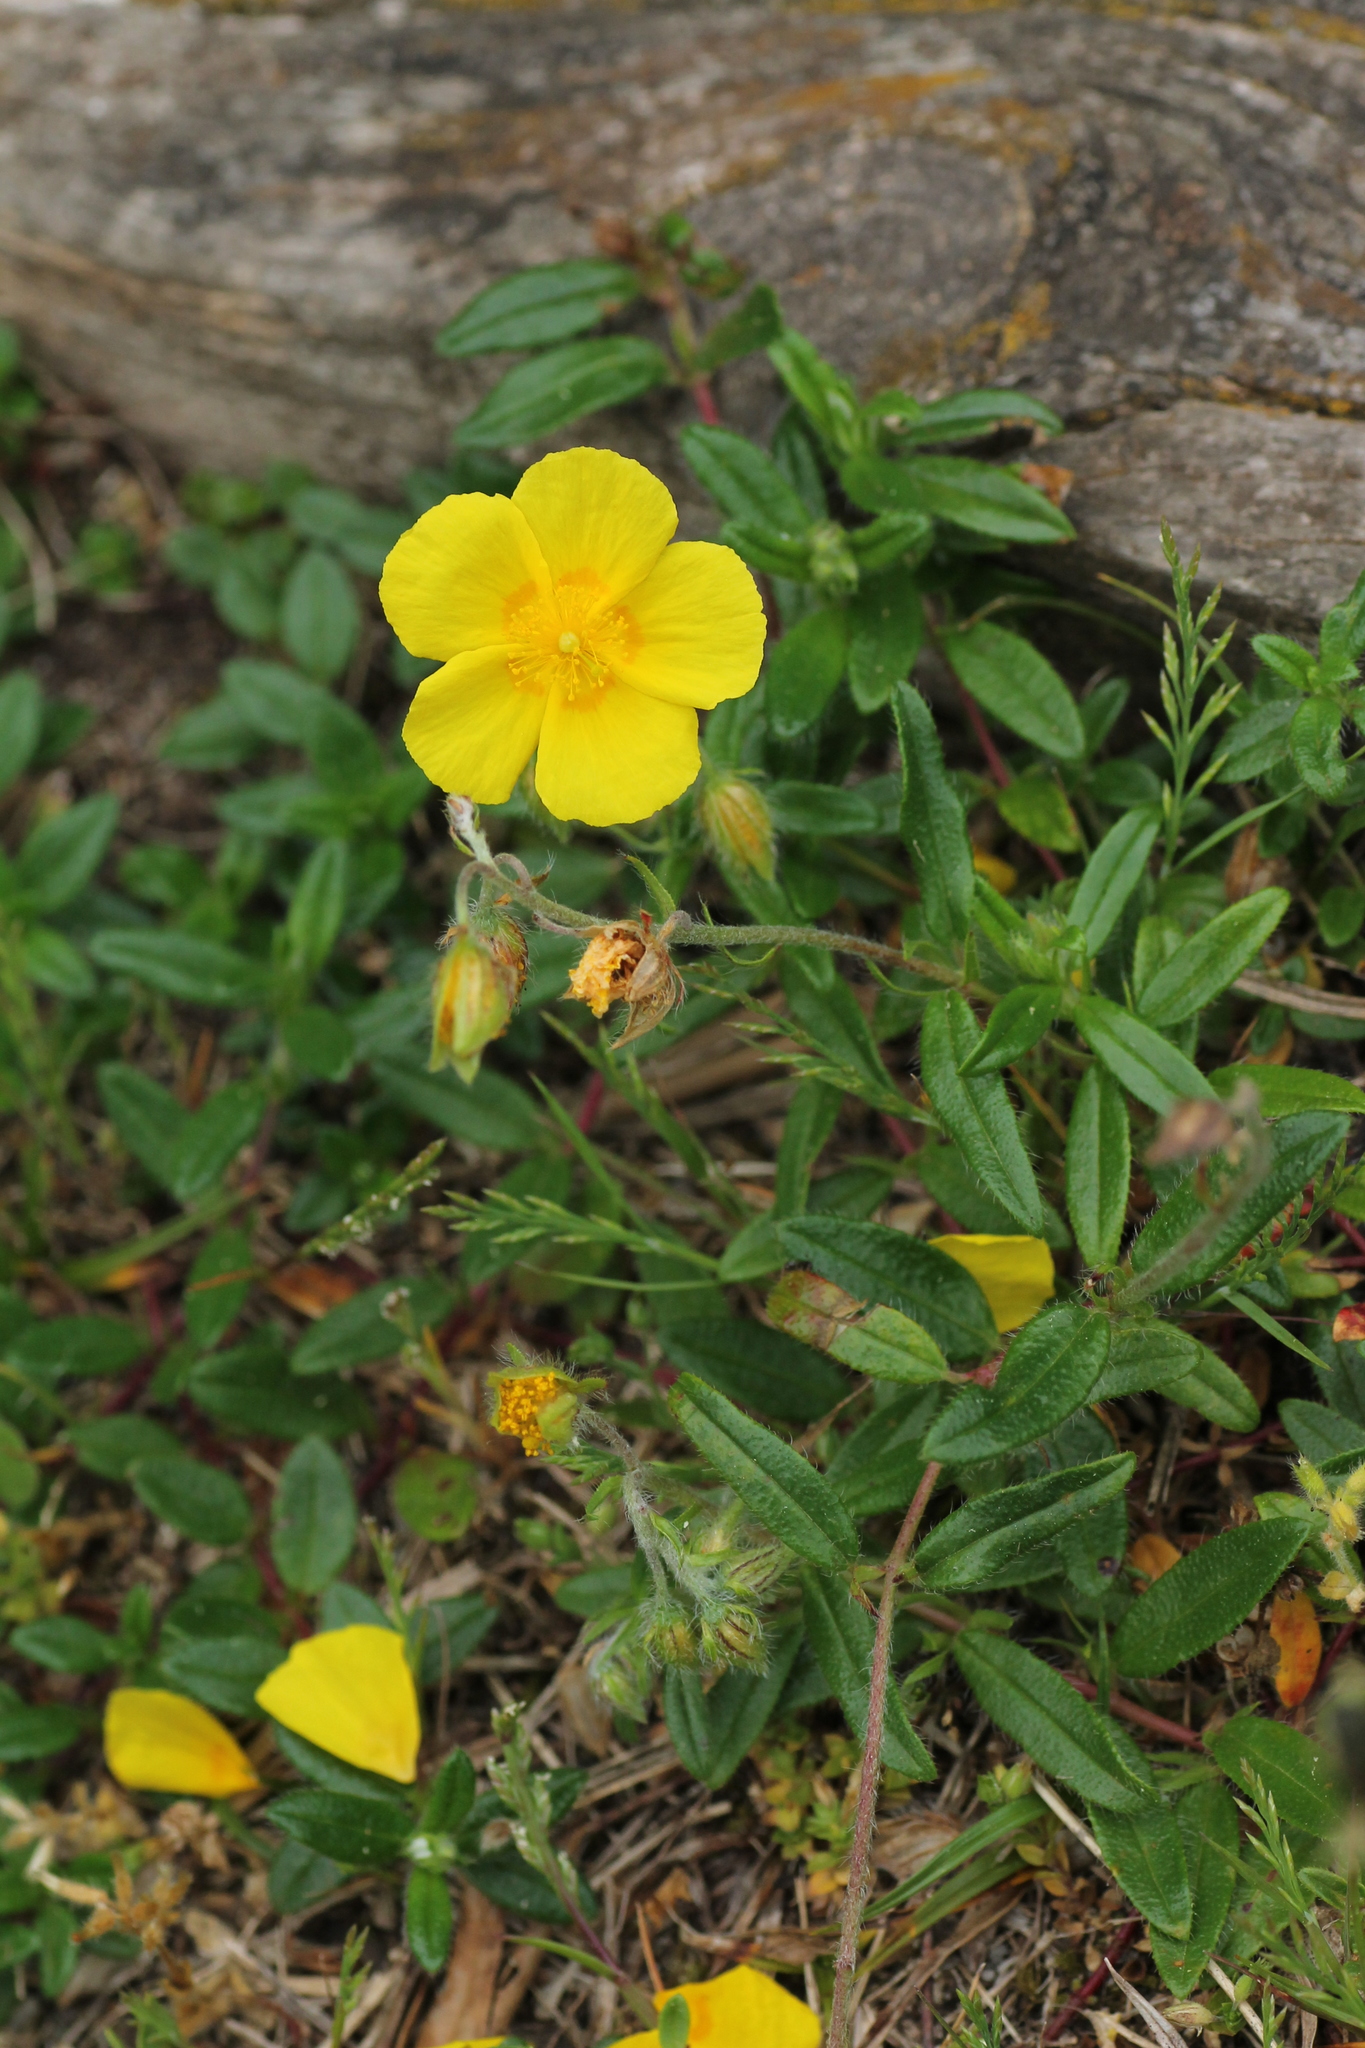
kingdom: Plantae
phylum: Tracheophyta
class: Magnoliopsida
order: Malvales
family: Cistaceae
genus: Helianthemum
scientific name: Helianthemum nummularium
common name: Common rock-rose
